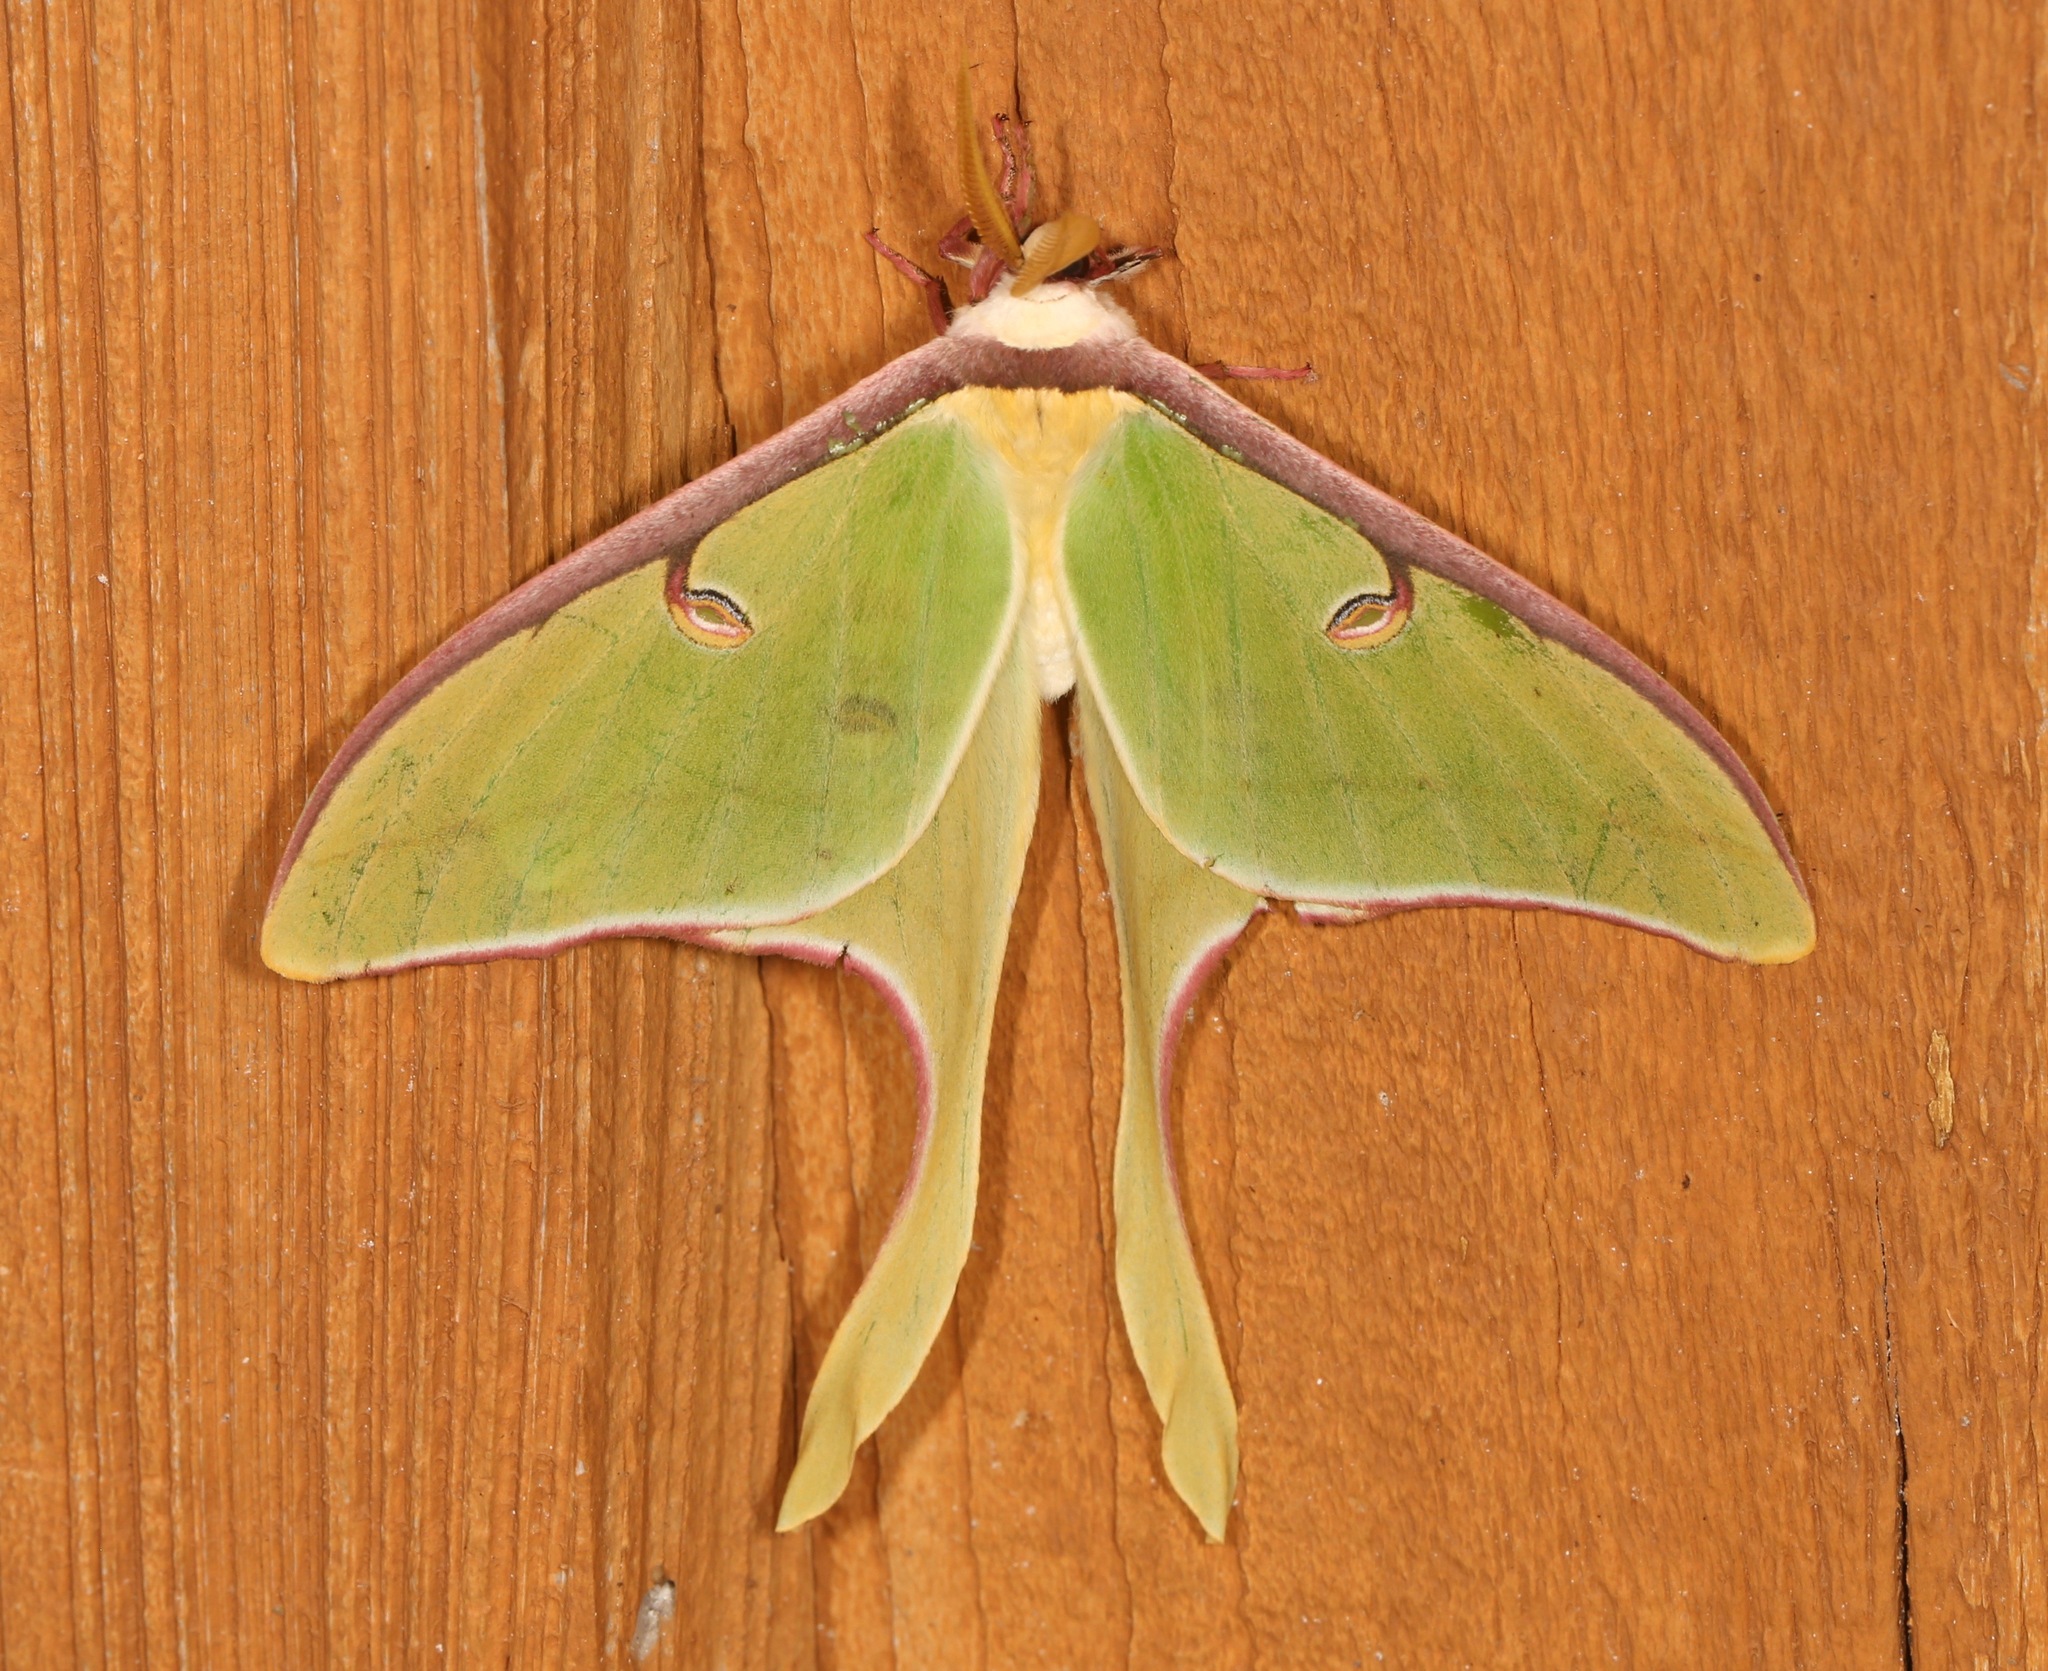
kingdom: Animalia
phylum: Arthropoda
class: Insecta
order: Lepidoptera
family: Saturniidae
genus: Actias
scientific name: Actias luna
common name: Luna moth
